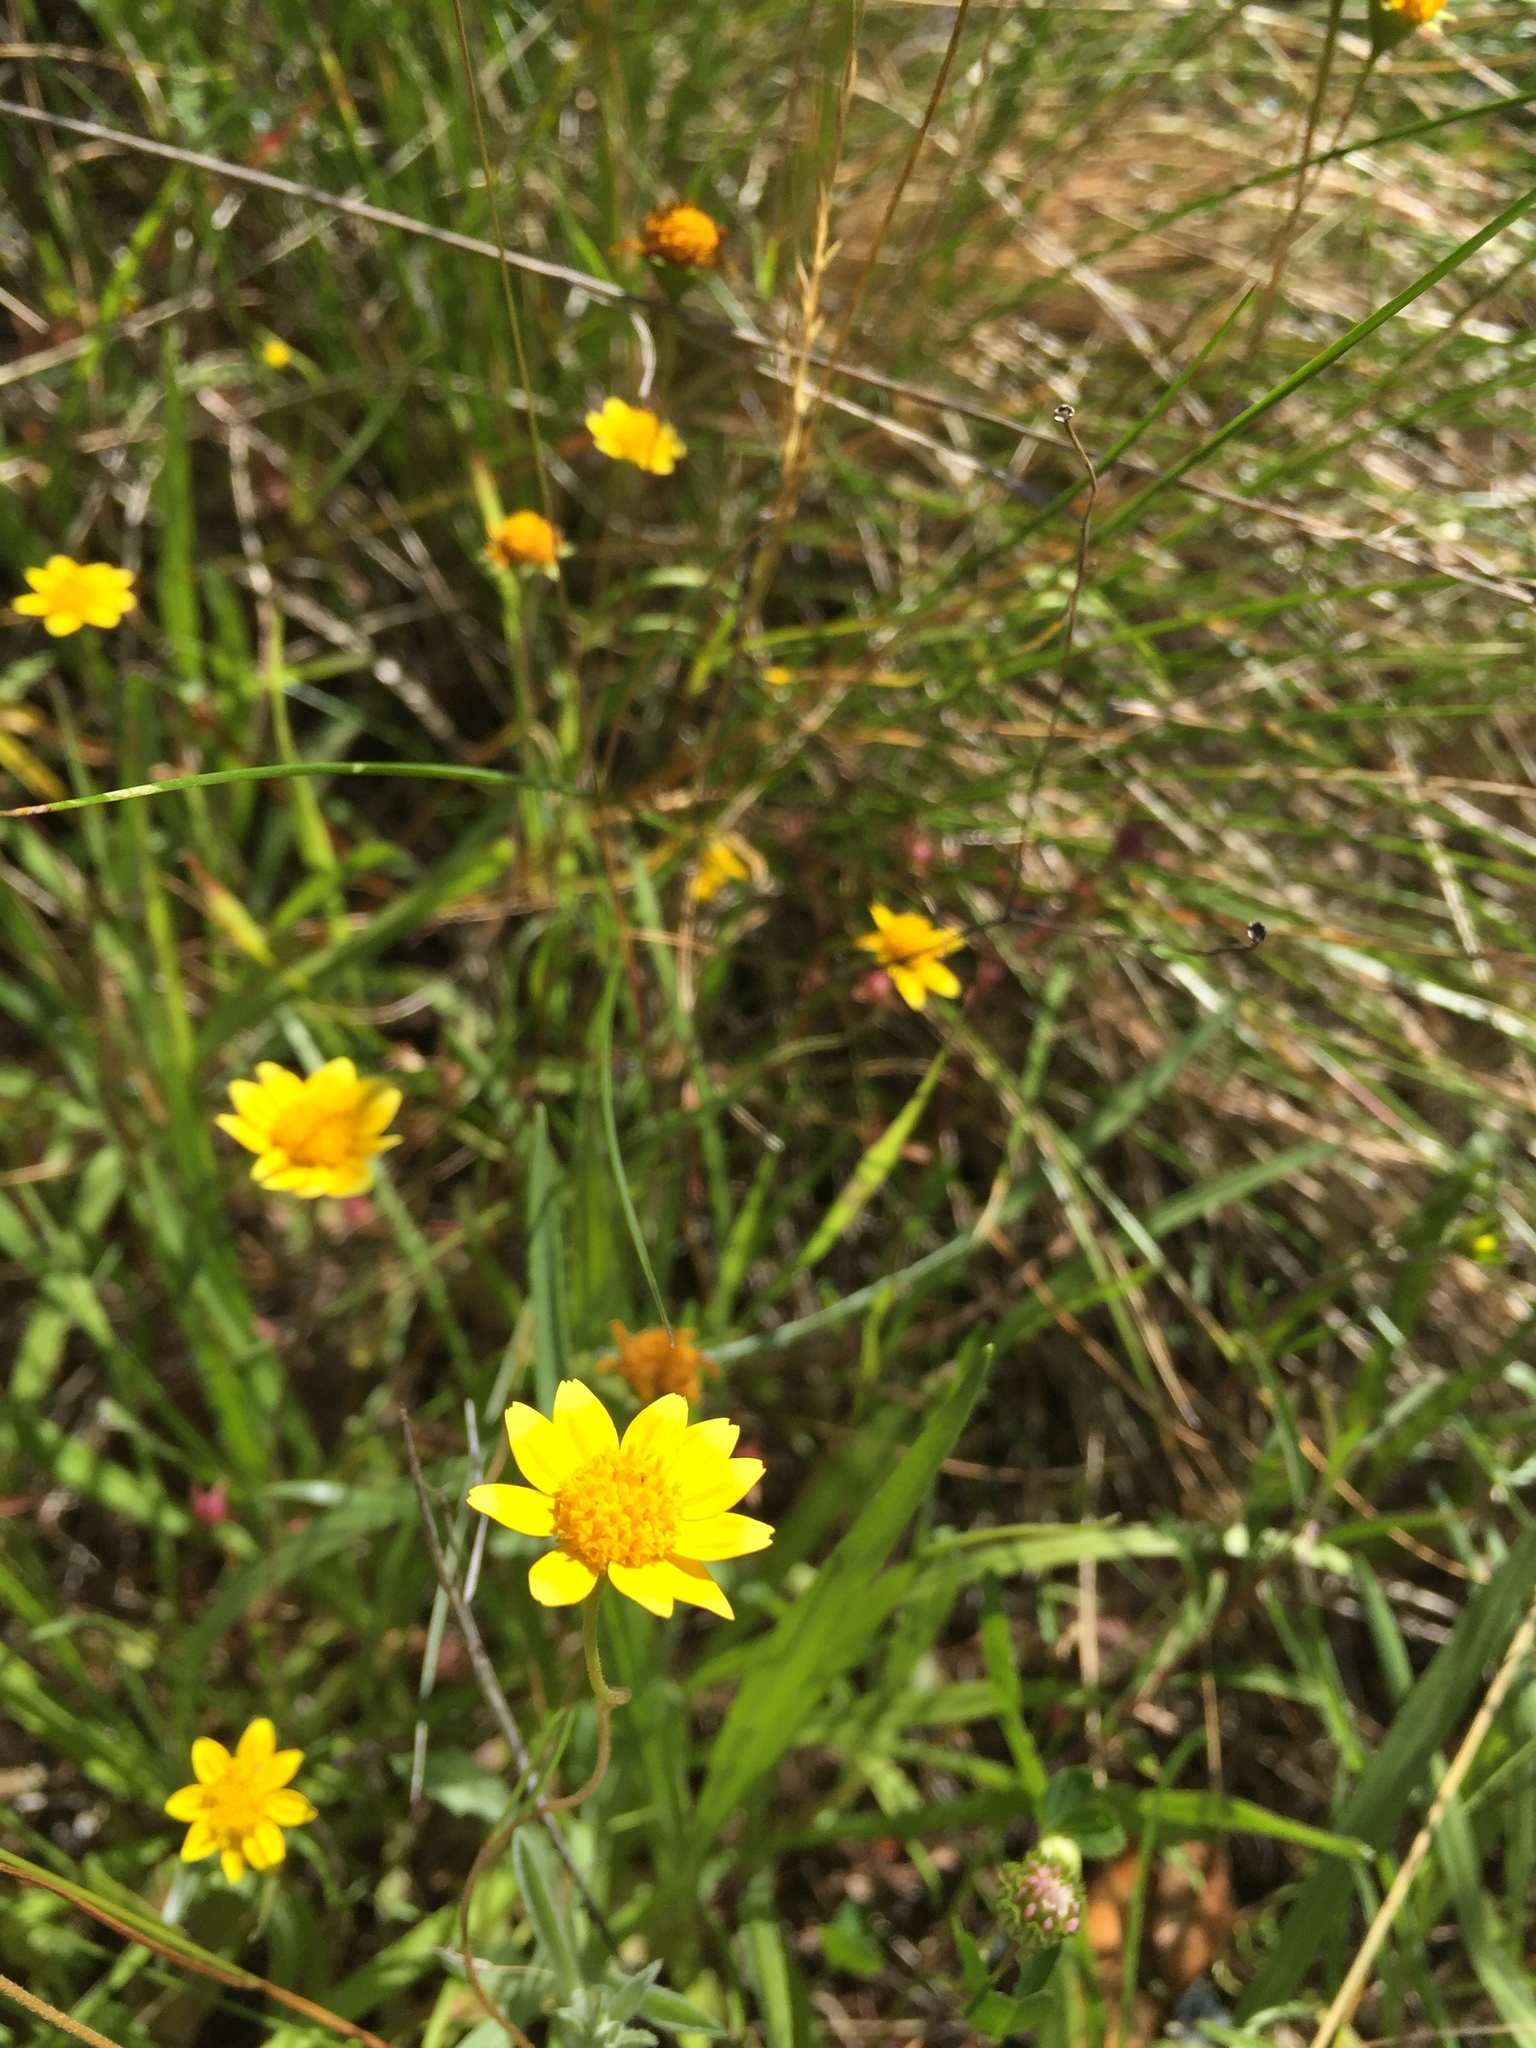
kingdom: Plantae
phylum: Tracheophyta
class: Magnoliopsida
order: Asterales
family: Asteraceae
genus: Lasthenia
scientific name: Lasthenia californica
